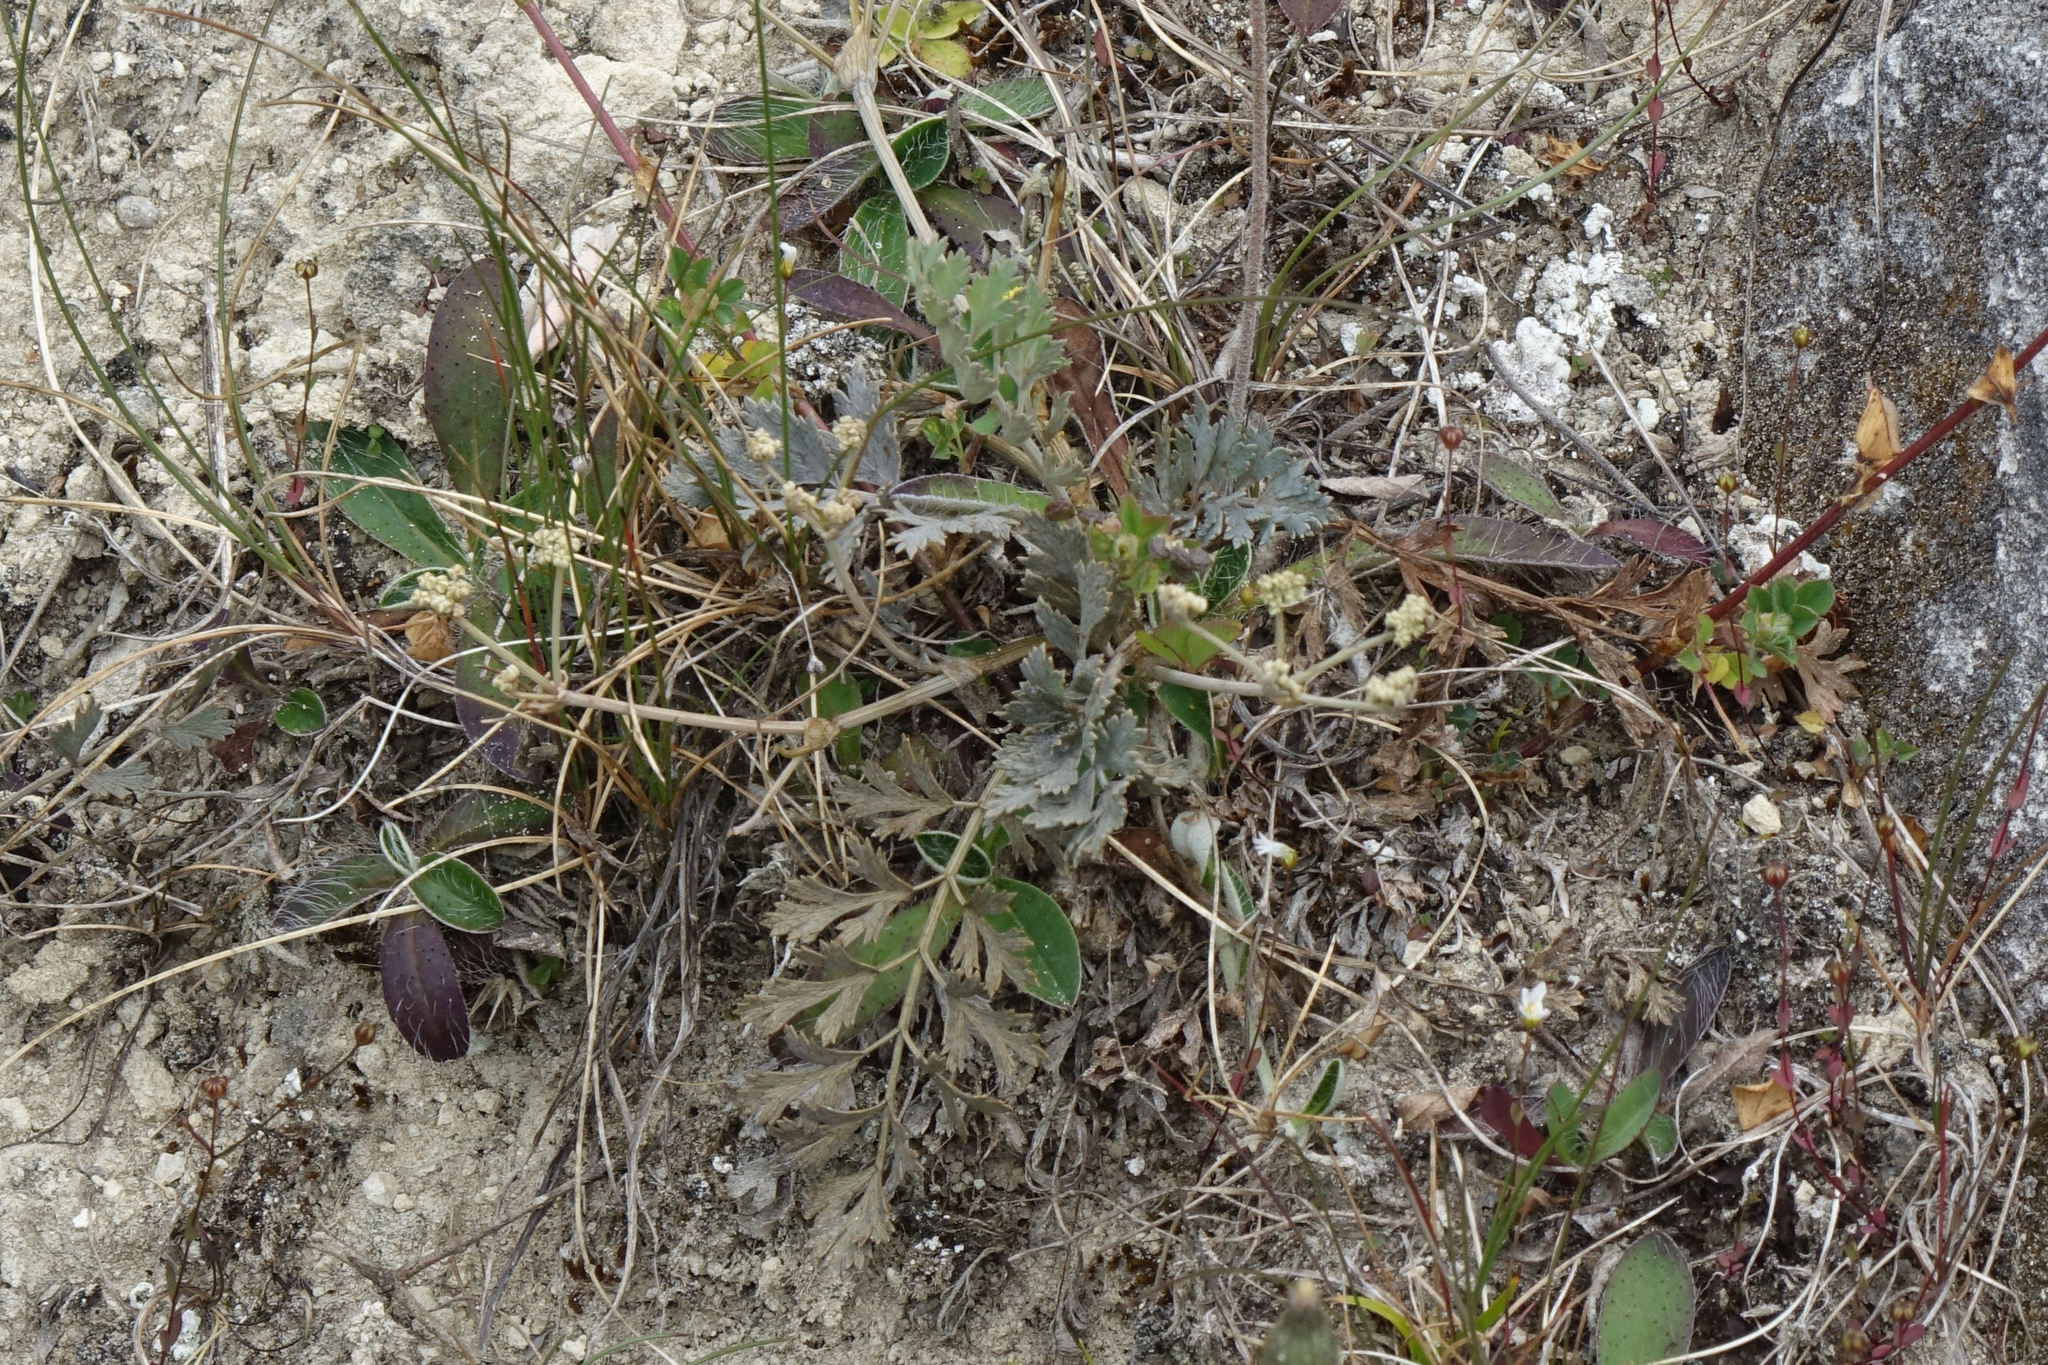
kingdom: Plantae
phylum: Tracheophyta
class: Magnoliopsida
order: Apiales
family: Apiaceae
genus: Gingidia
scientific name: Gingidia enysii
